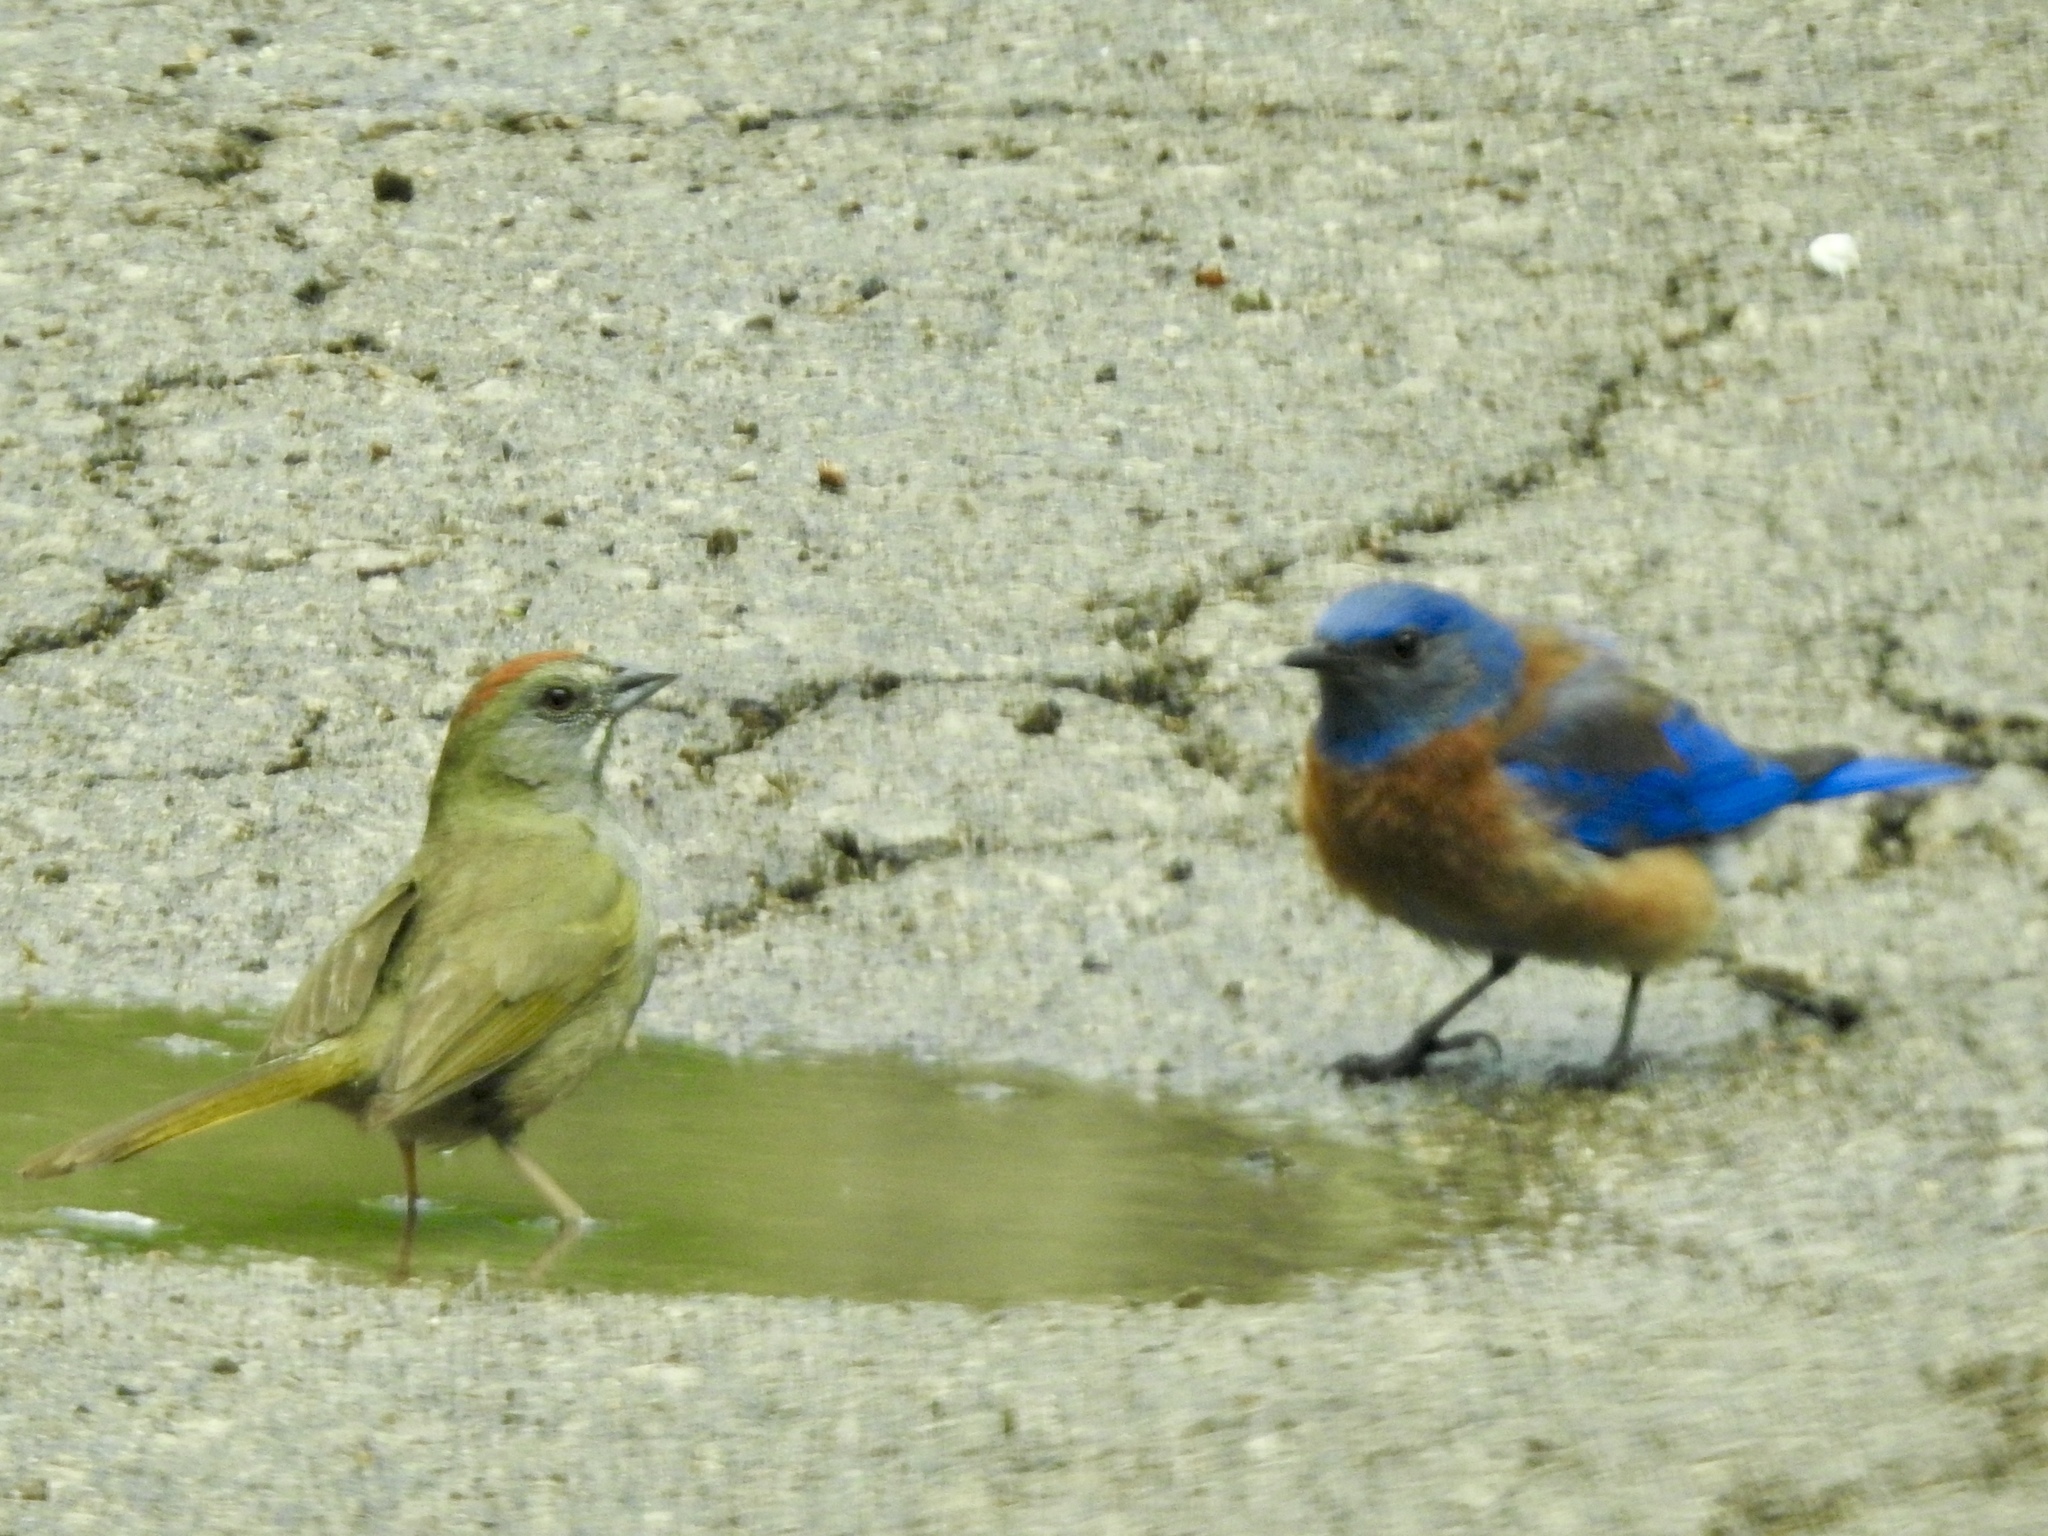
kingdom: Animalia
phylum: Chordata
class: Aves
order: Passeriformes
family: Turdidae
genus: Sialia
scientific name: Sialia mexicana
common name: Western bluebird
